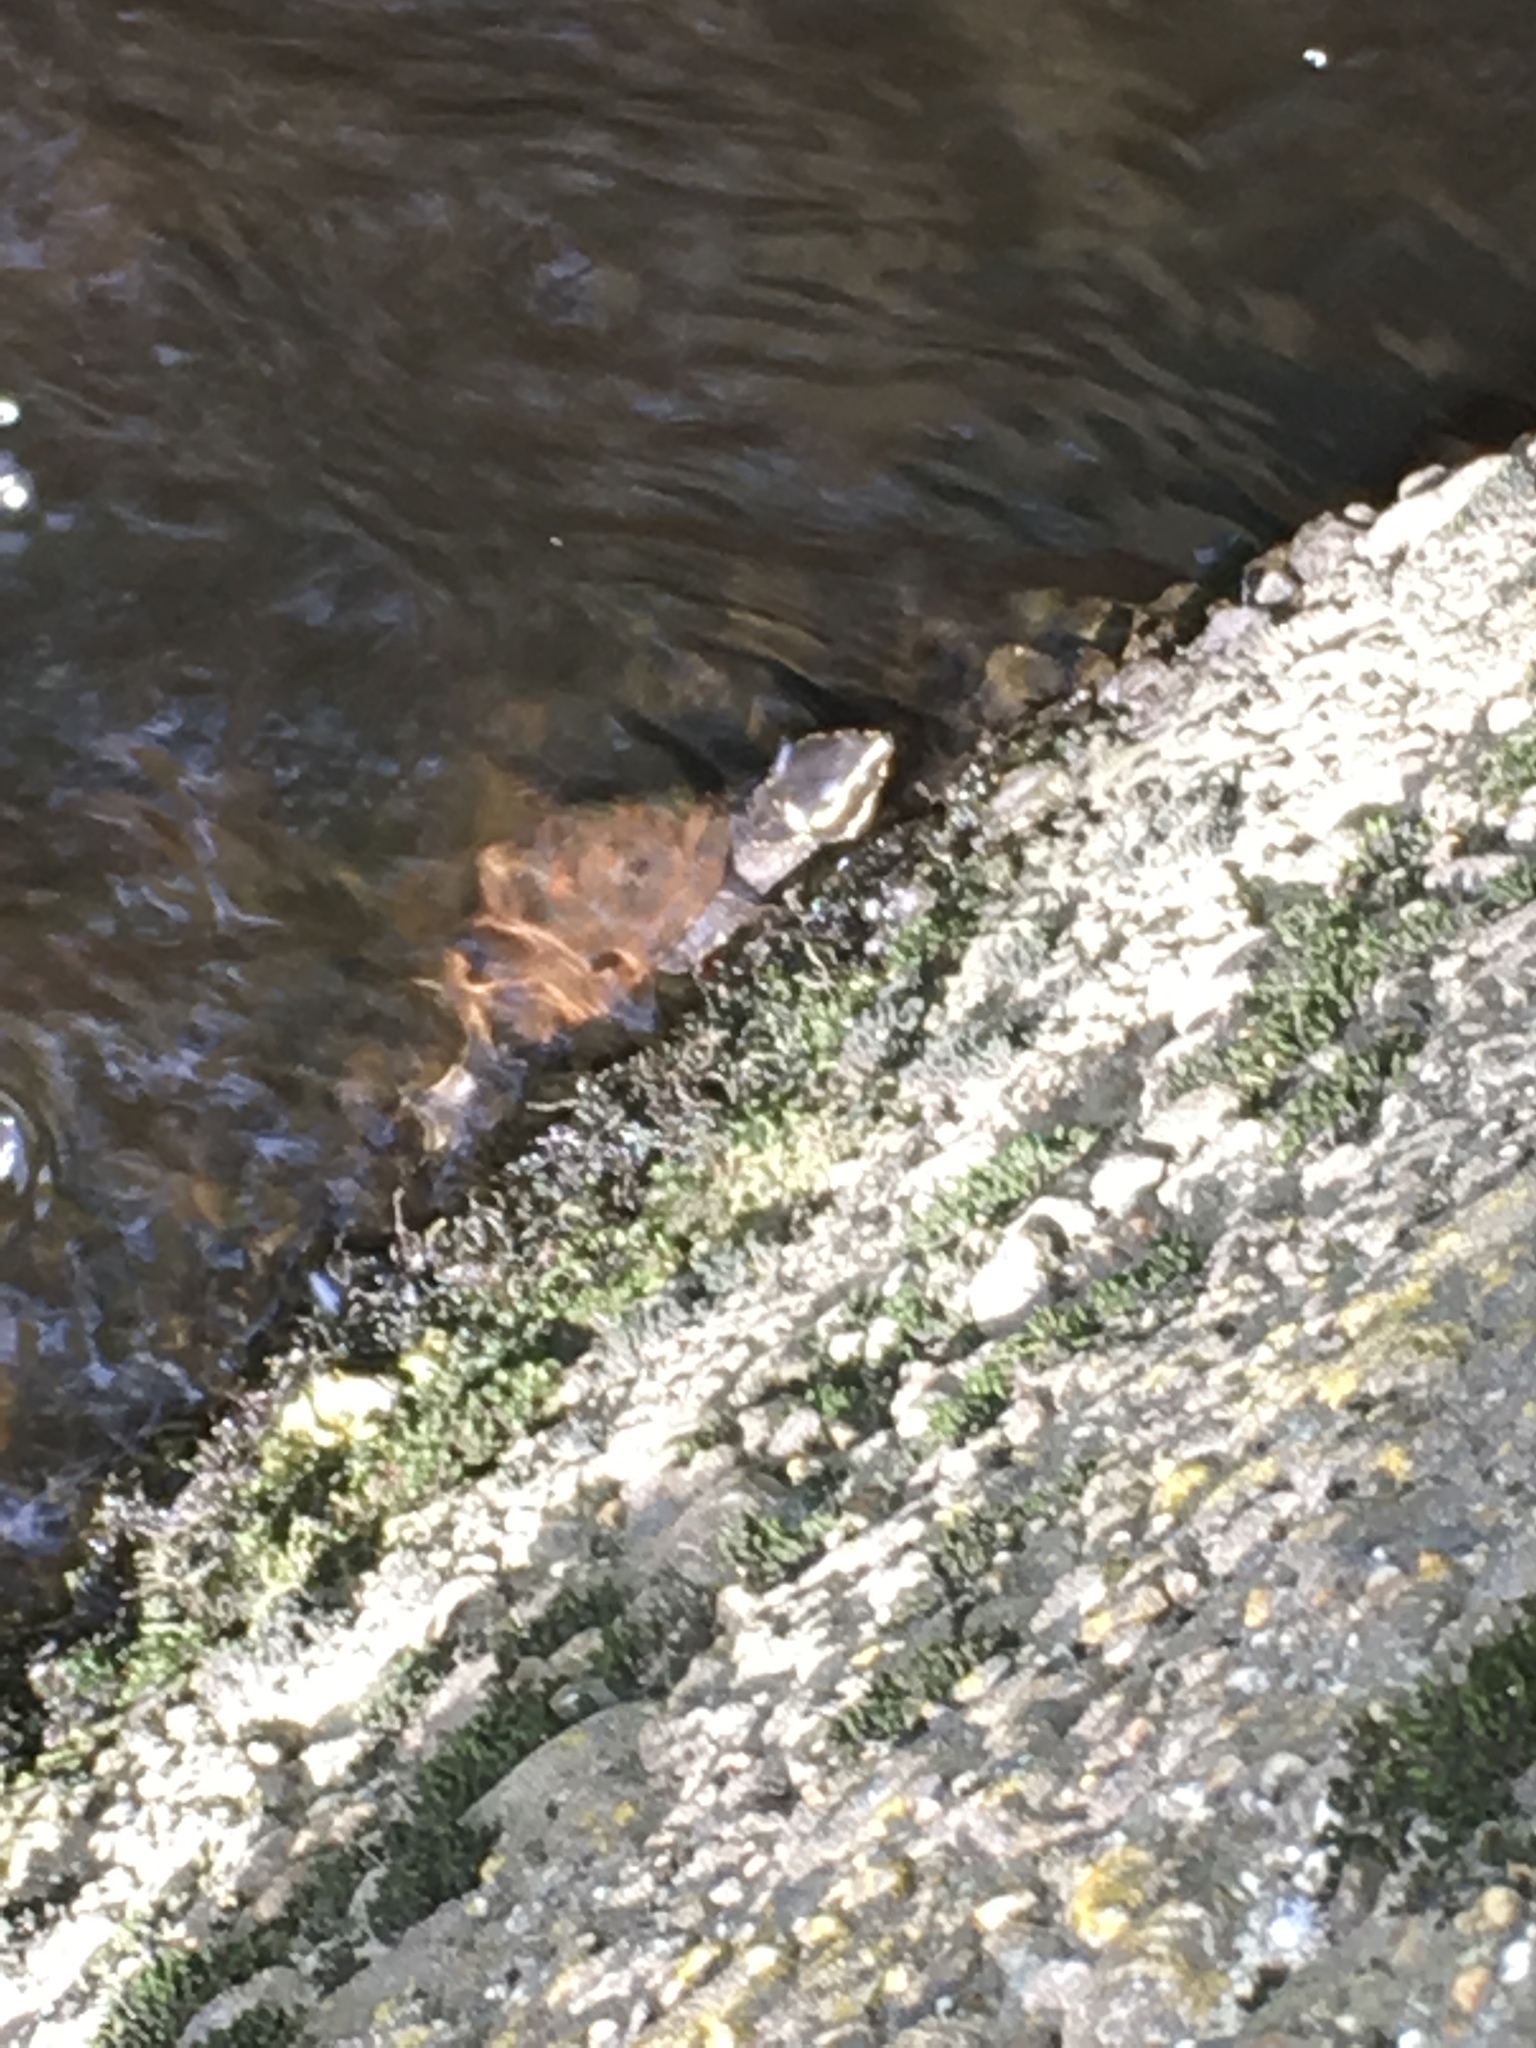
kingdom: Animalia
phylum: Chordata
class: Testudines
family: Kinosternidae
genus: Sternotherus
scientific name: Sternotherus odoratus
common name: Common musk turtle
